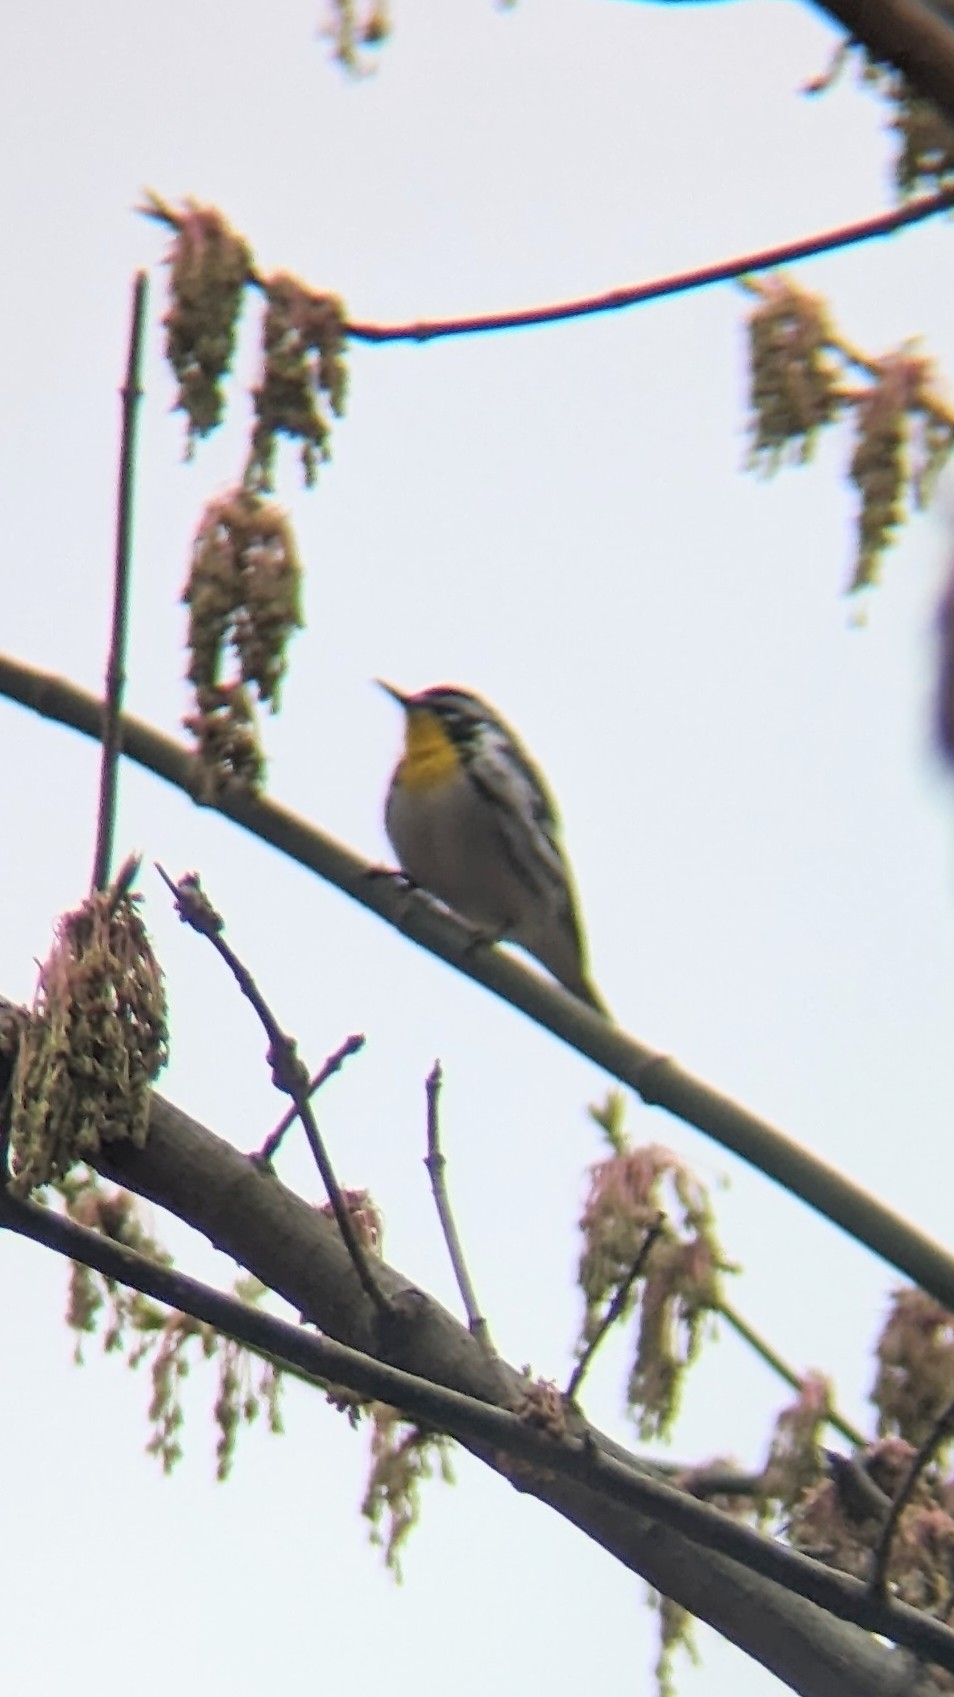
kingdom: Animalia
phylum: Chordata
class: Aves
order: Passeriformes
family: Parulidae
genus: Setophaga
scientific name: Setophaga dominica
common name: Yellow-throated warbler
